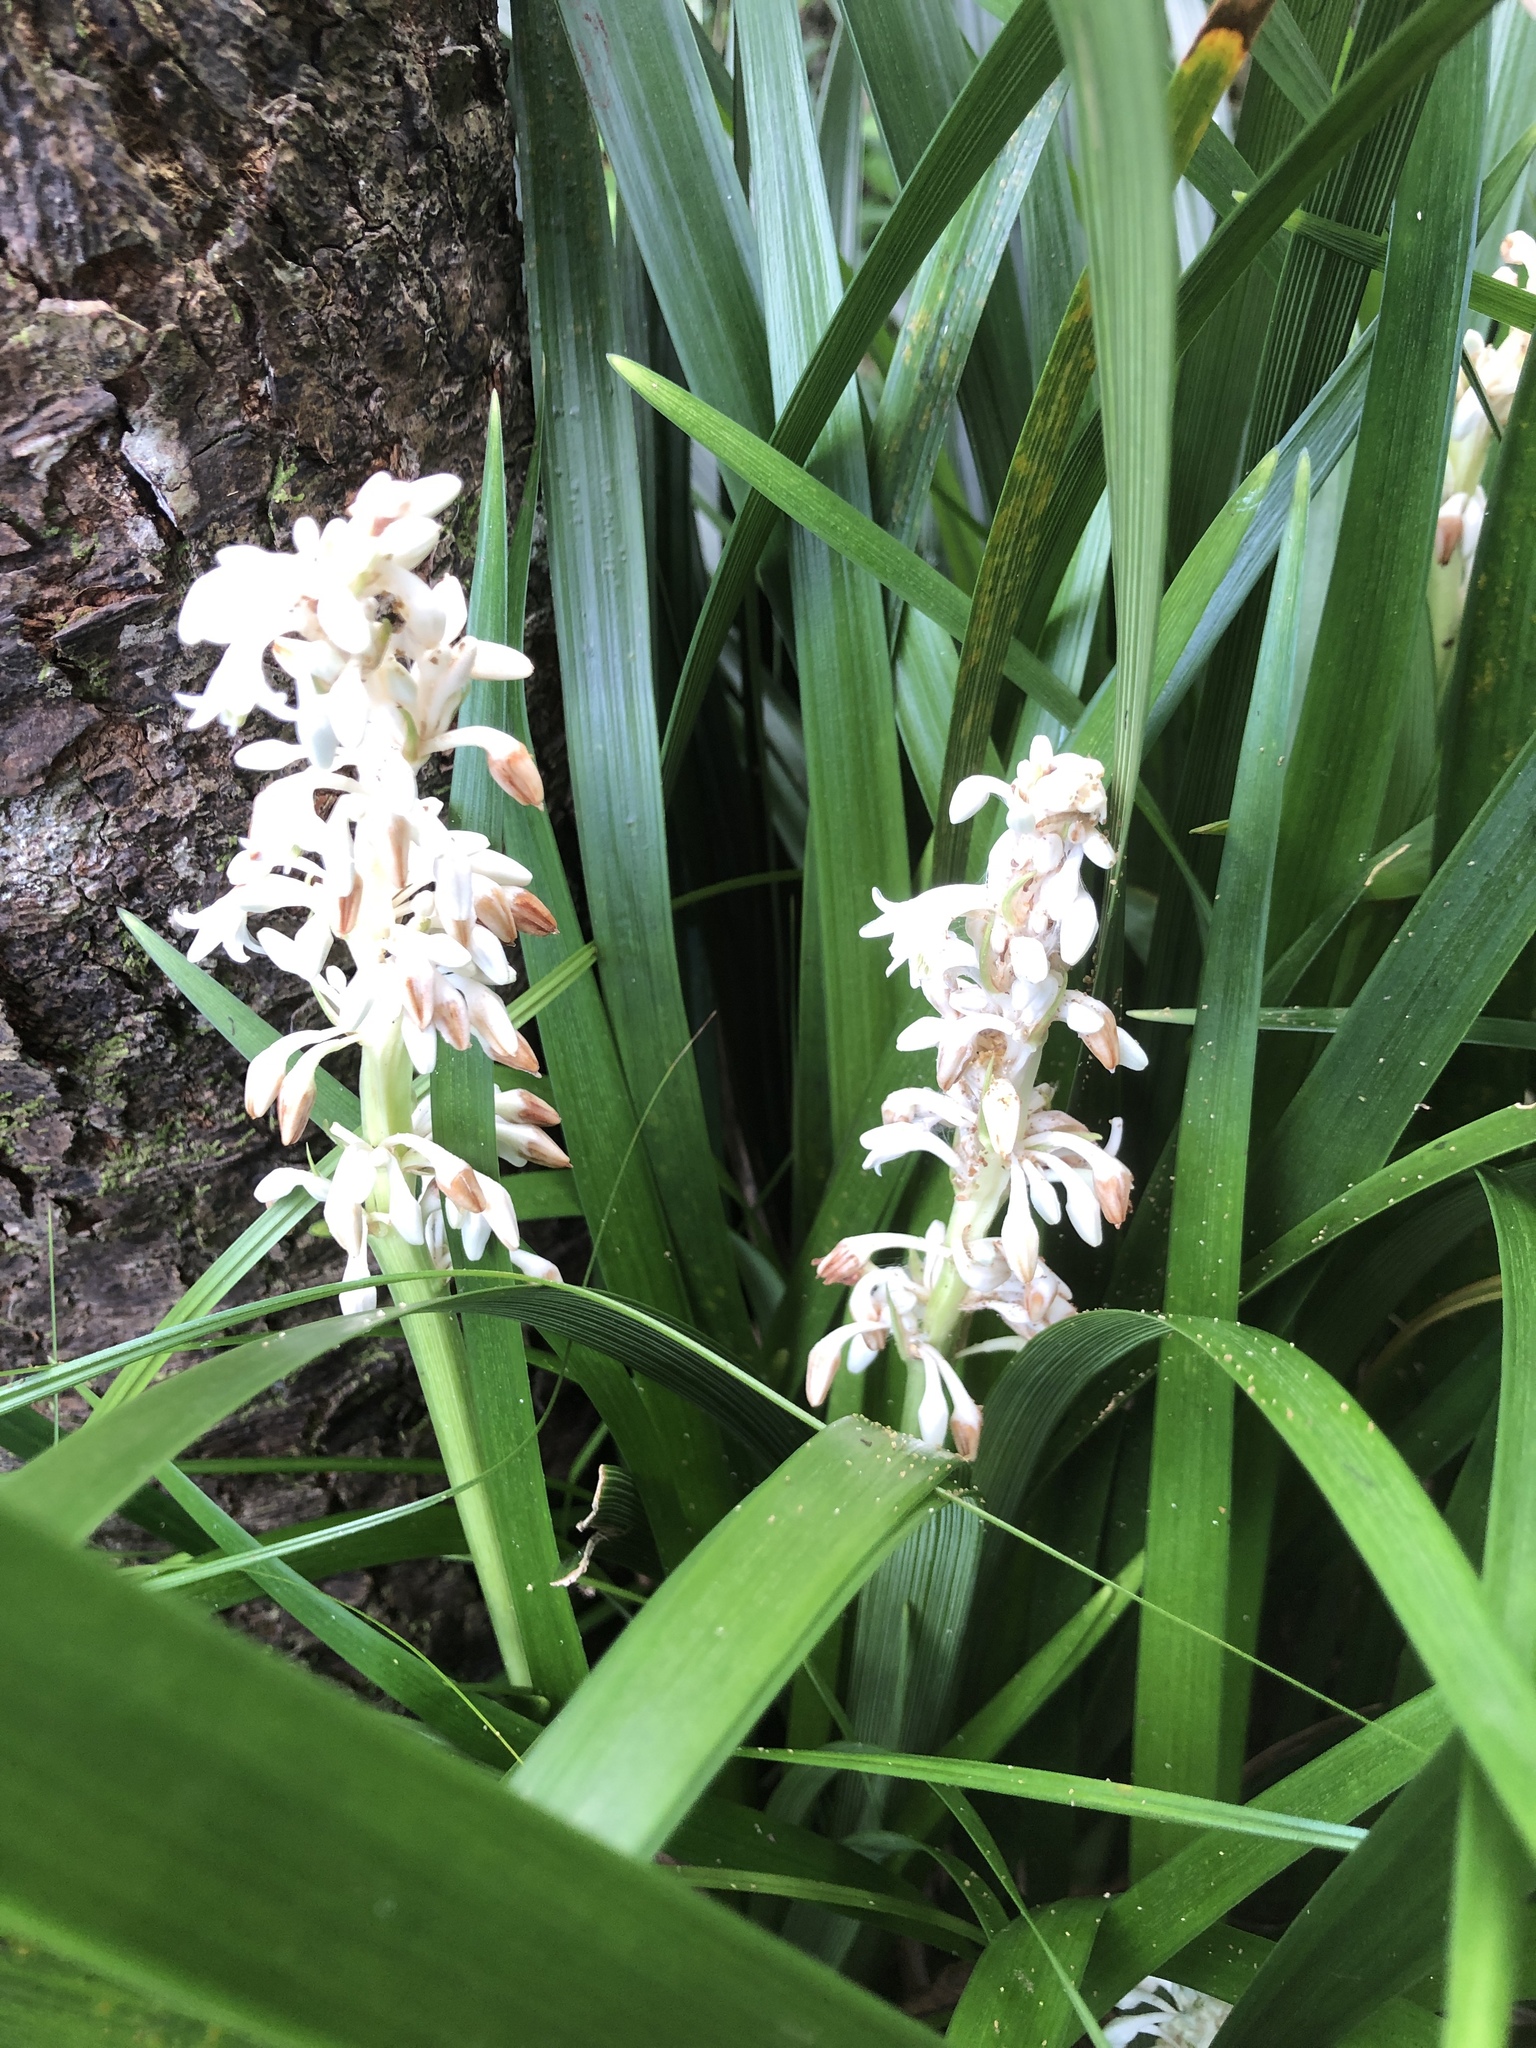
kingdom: Plantae
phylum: Tracheophyta
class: Liliopsida
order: Asparagales
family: Asparagaceae
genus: Ophiopogon
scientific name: Ophiopogon jaburan
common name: Lilyturf
